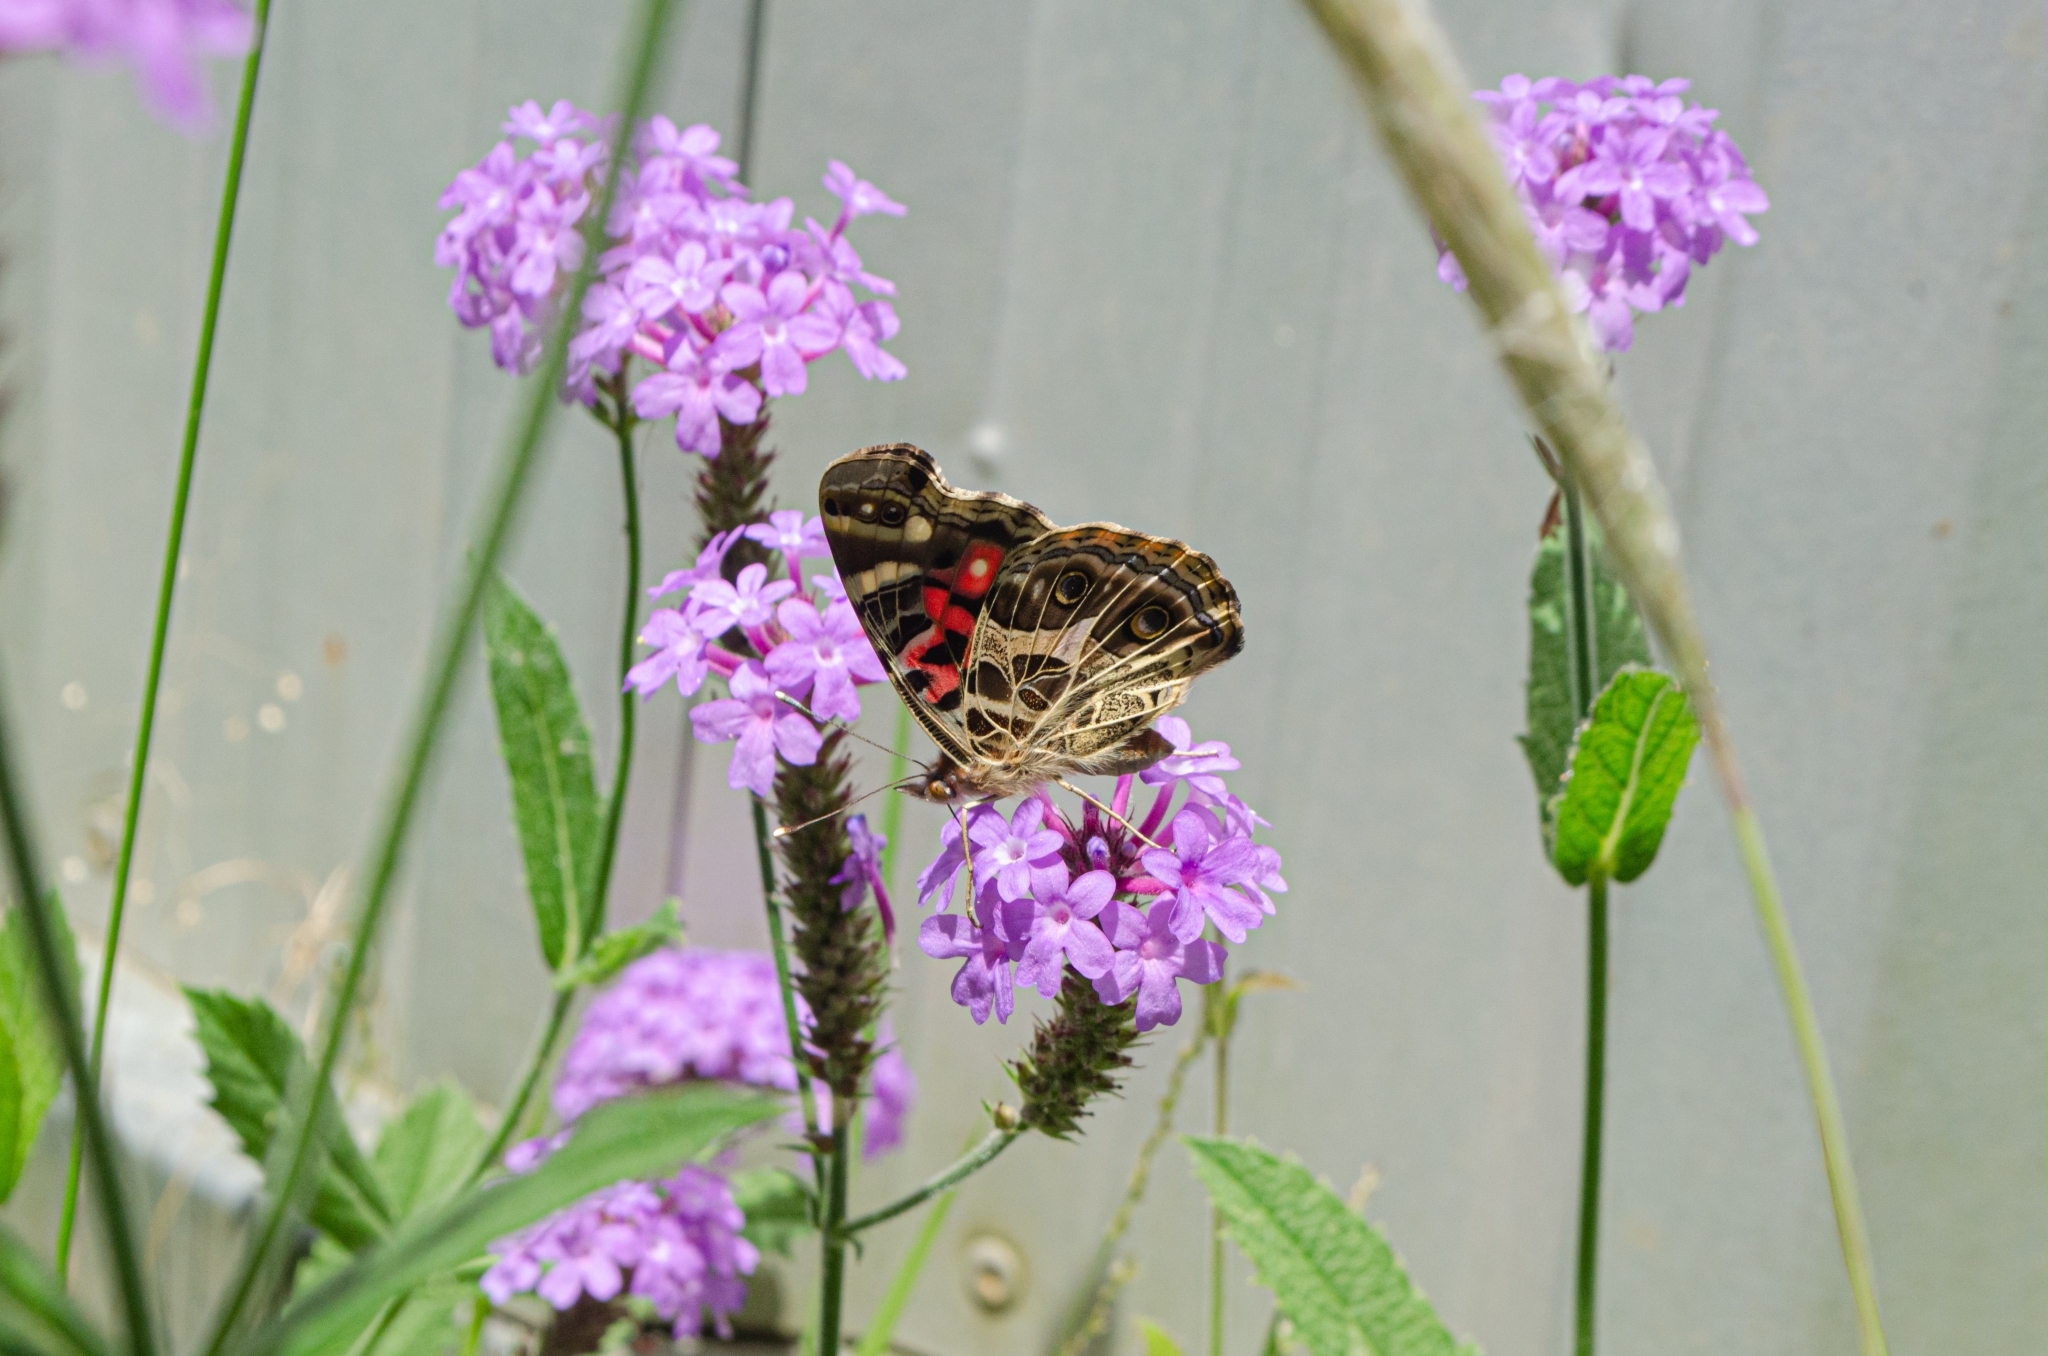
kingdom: Animalia
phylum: Arthropoda
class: Insecta
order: Lepidoptera
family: Nymphalidae
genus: Vanessa
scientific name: Vanessa braziliensis
